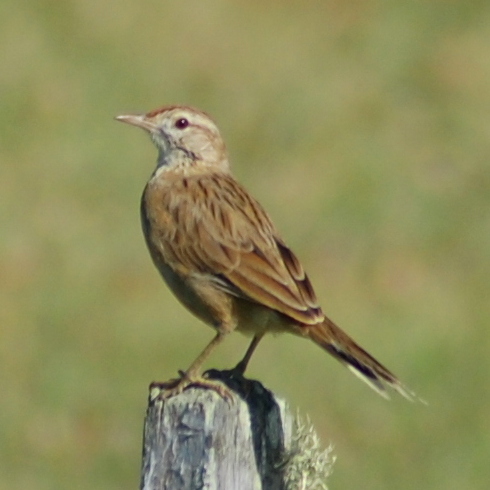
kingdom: Animalia
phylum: Chordata
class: Aves
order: Passeriformes
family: Furnariidae
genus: Anumbius
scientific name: Anumbius annumbi
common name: Firewood-gatherer
